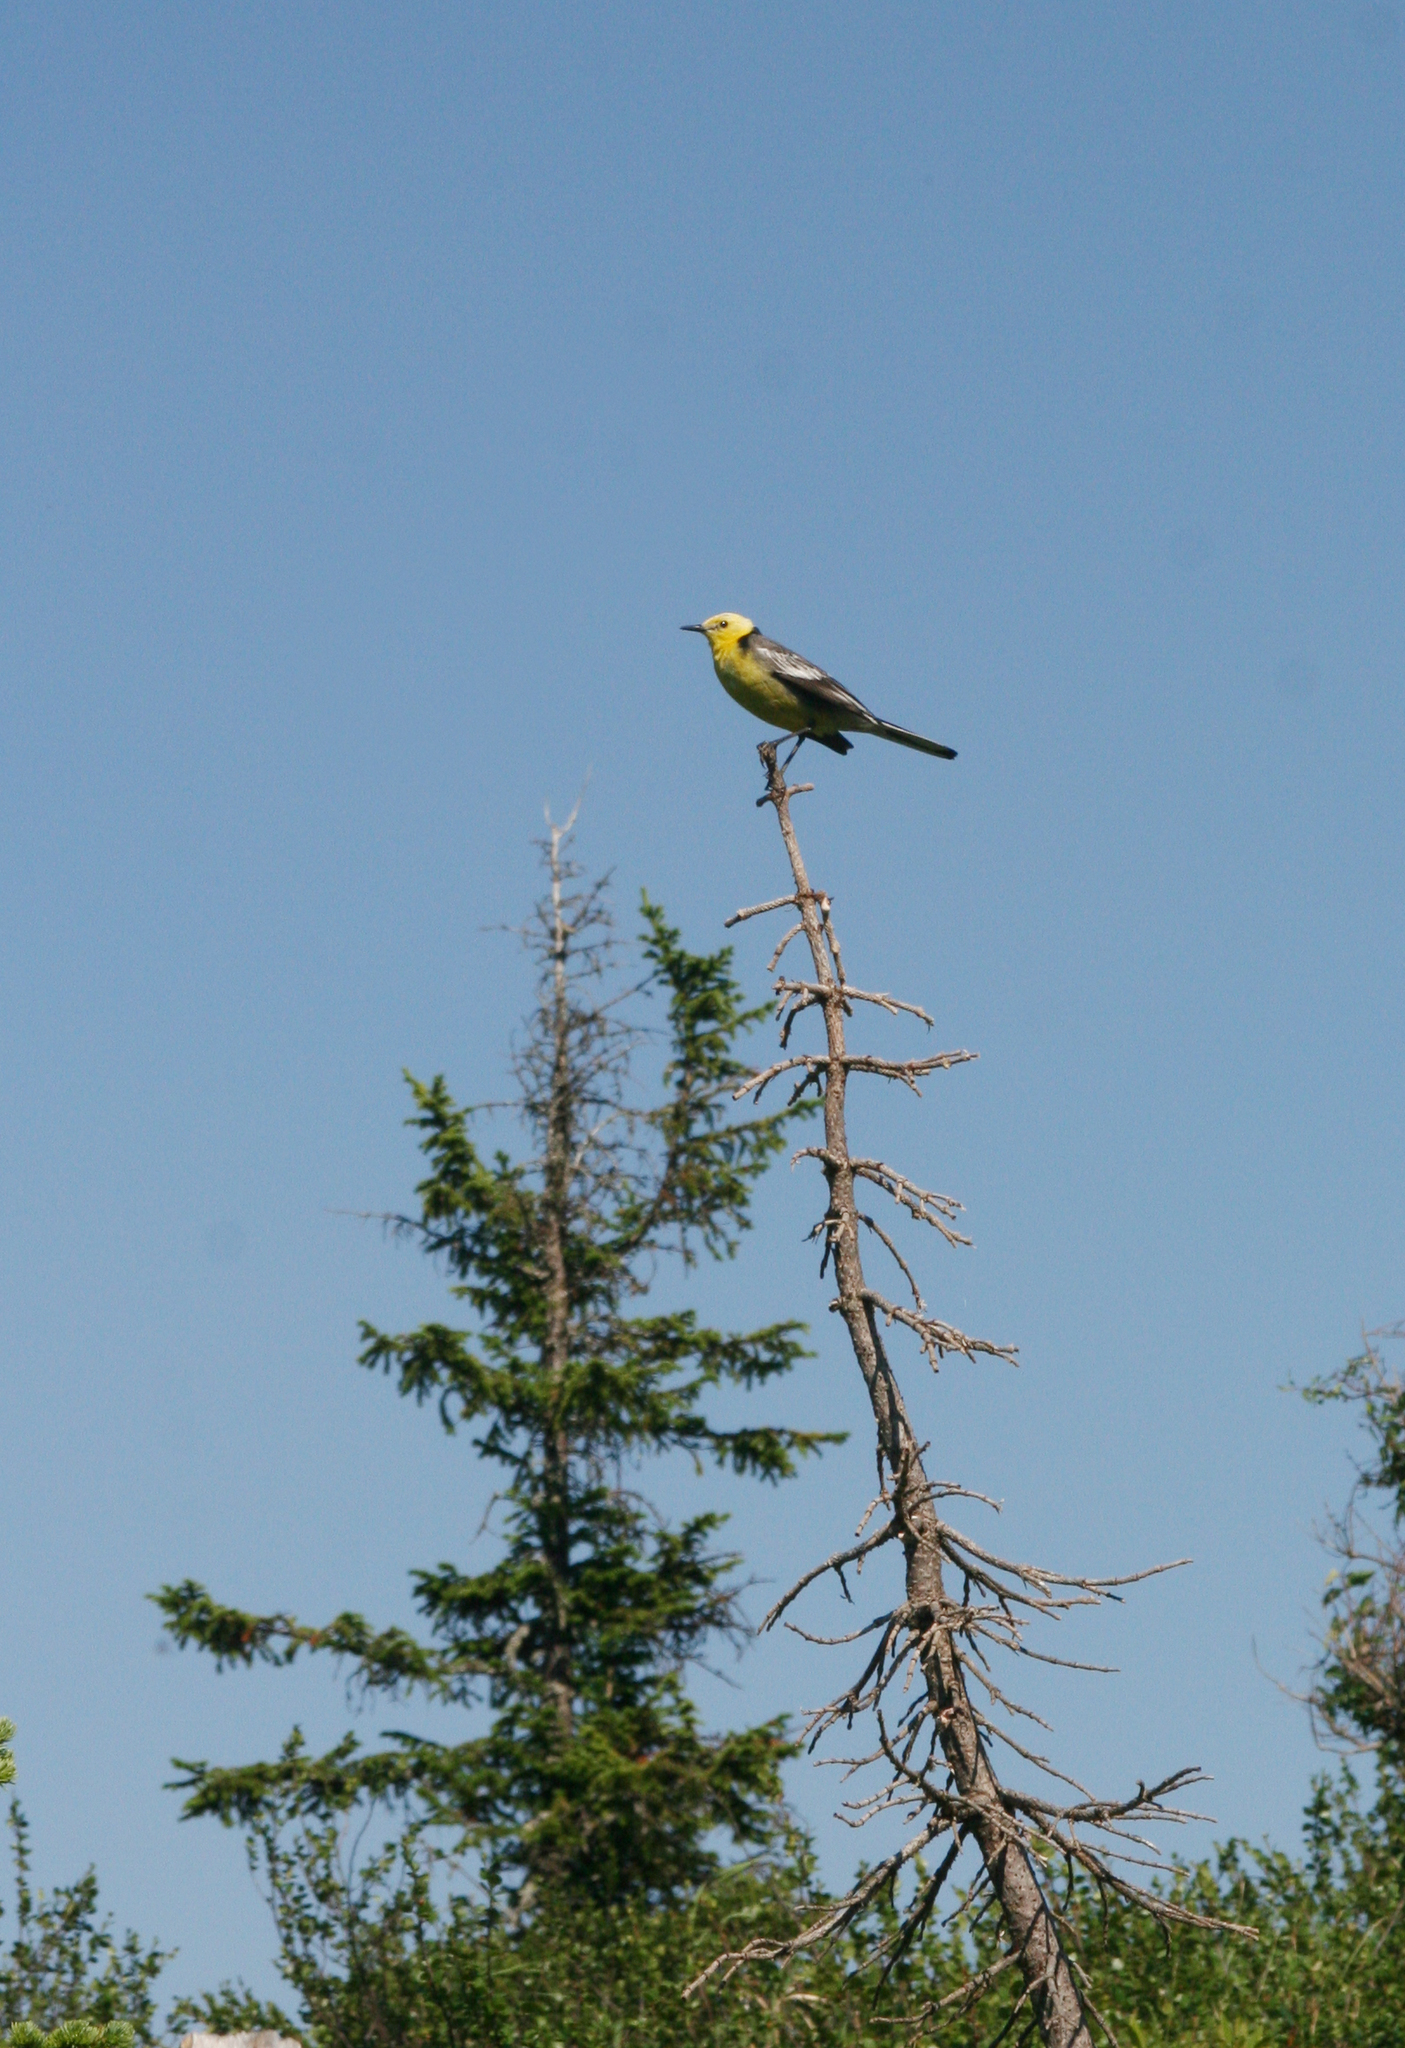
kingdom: Animalia
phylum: Chordata
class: Aves
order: Passeriformes
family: Motacillidae
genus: Motacilla
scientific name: Motacilla citreola
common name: Citrine wagtail
